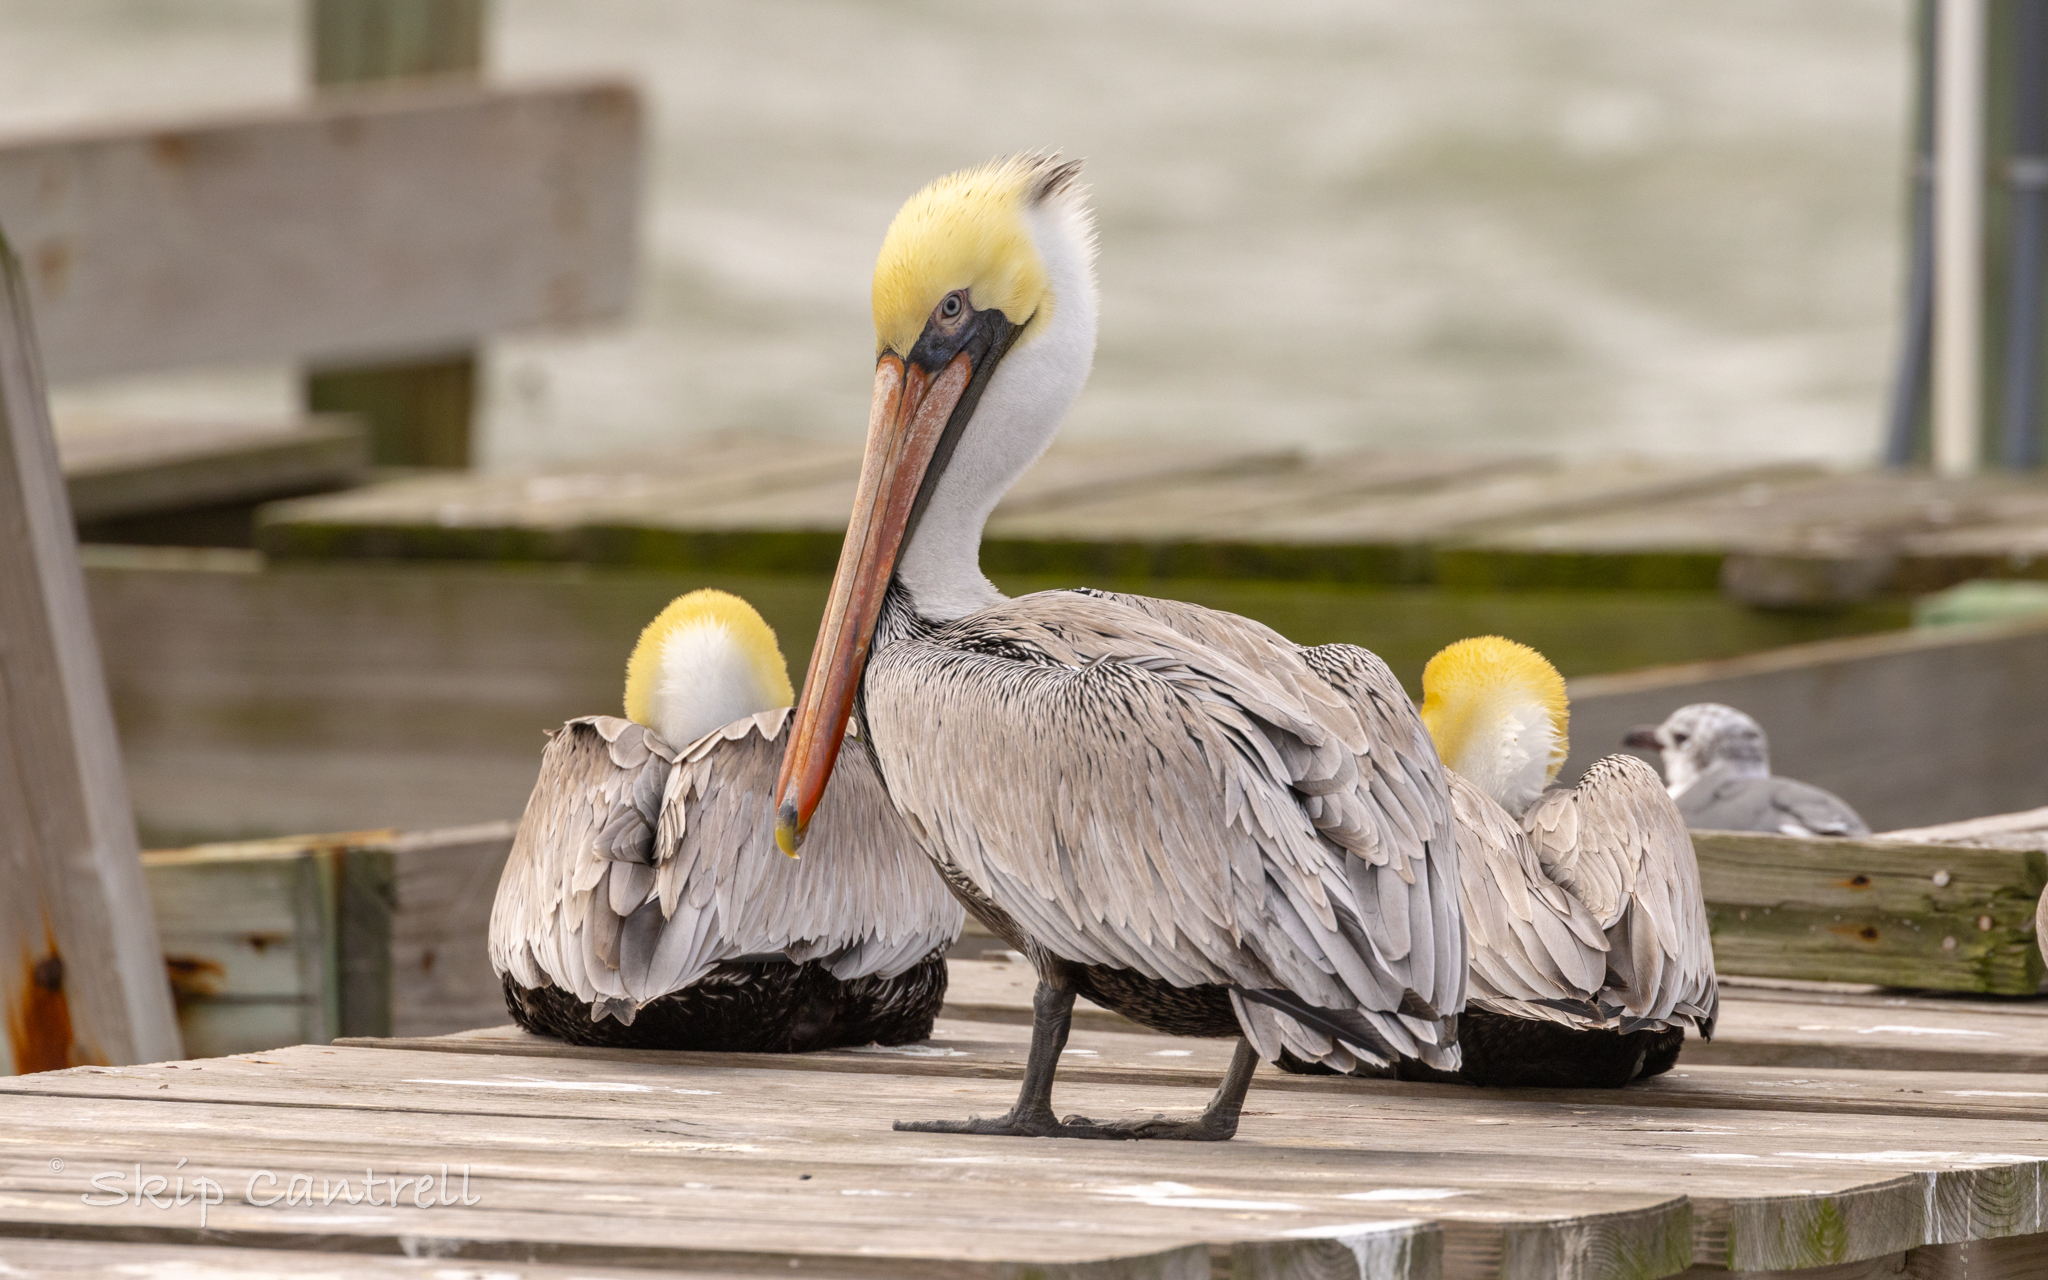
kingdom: Animalia
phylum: Chordata
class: Aves
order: Pelecaniformes
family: Pelecanidae
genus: Pelecanus
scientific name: Pelecanus occidentalis
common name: Brown pelican
